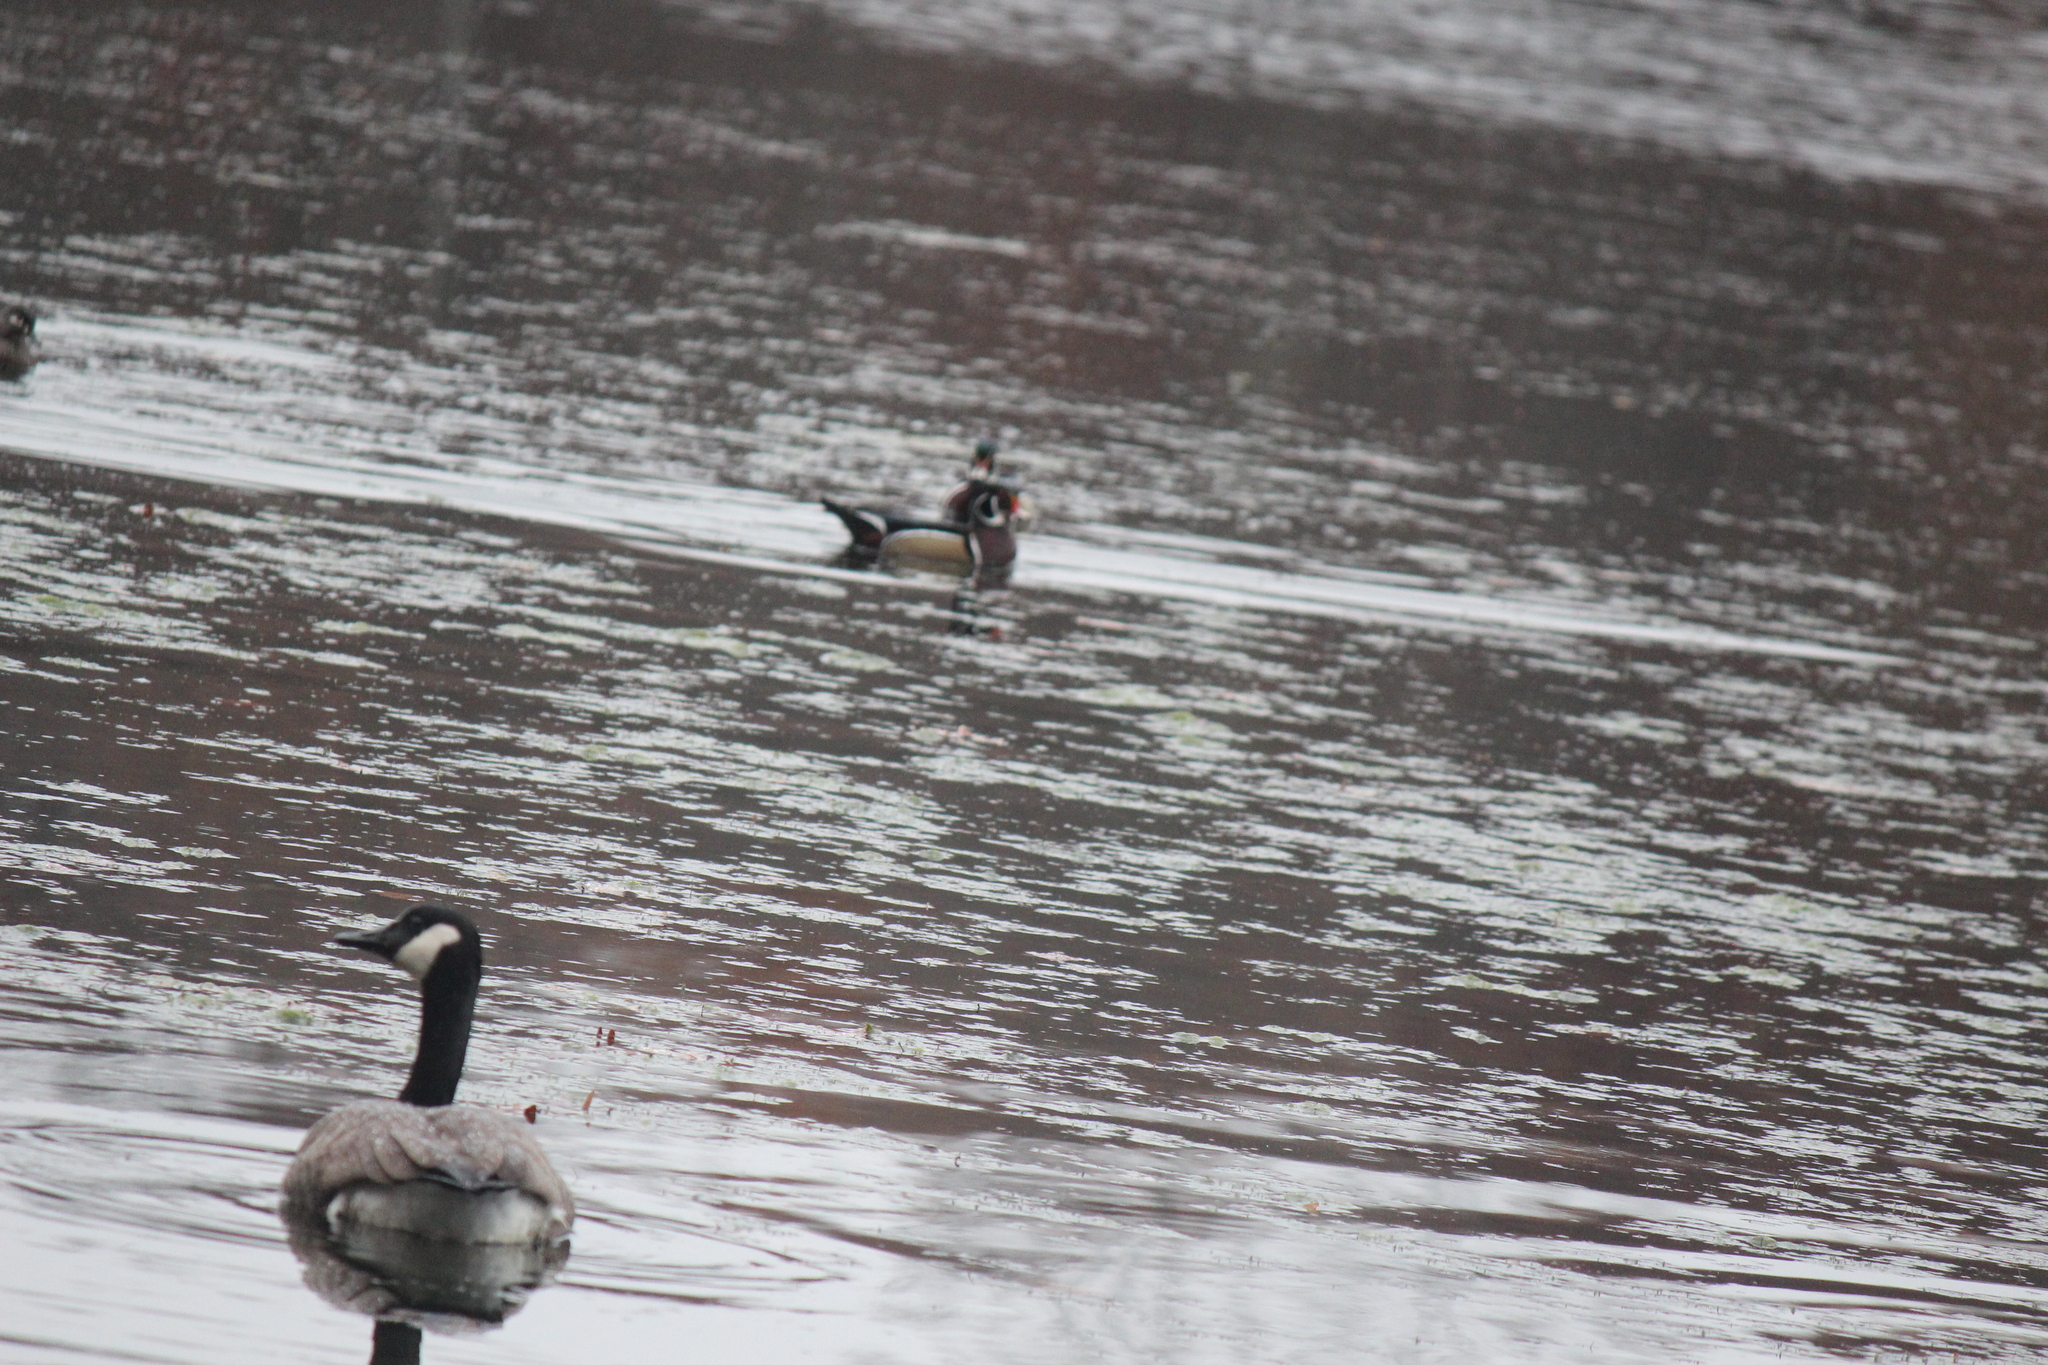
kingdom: Animalia
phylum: Chordata
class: Aves
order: Anseriformes
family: Anatidae
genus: Branta
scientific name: Branta canadensis
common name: Canada goose
